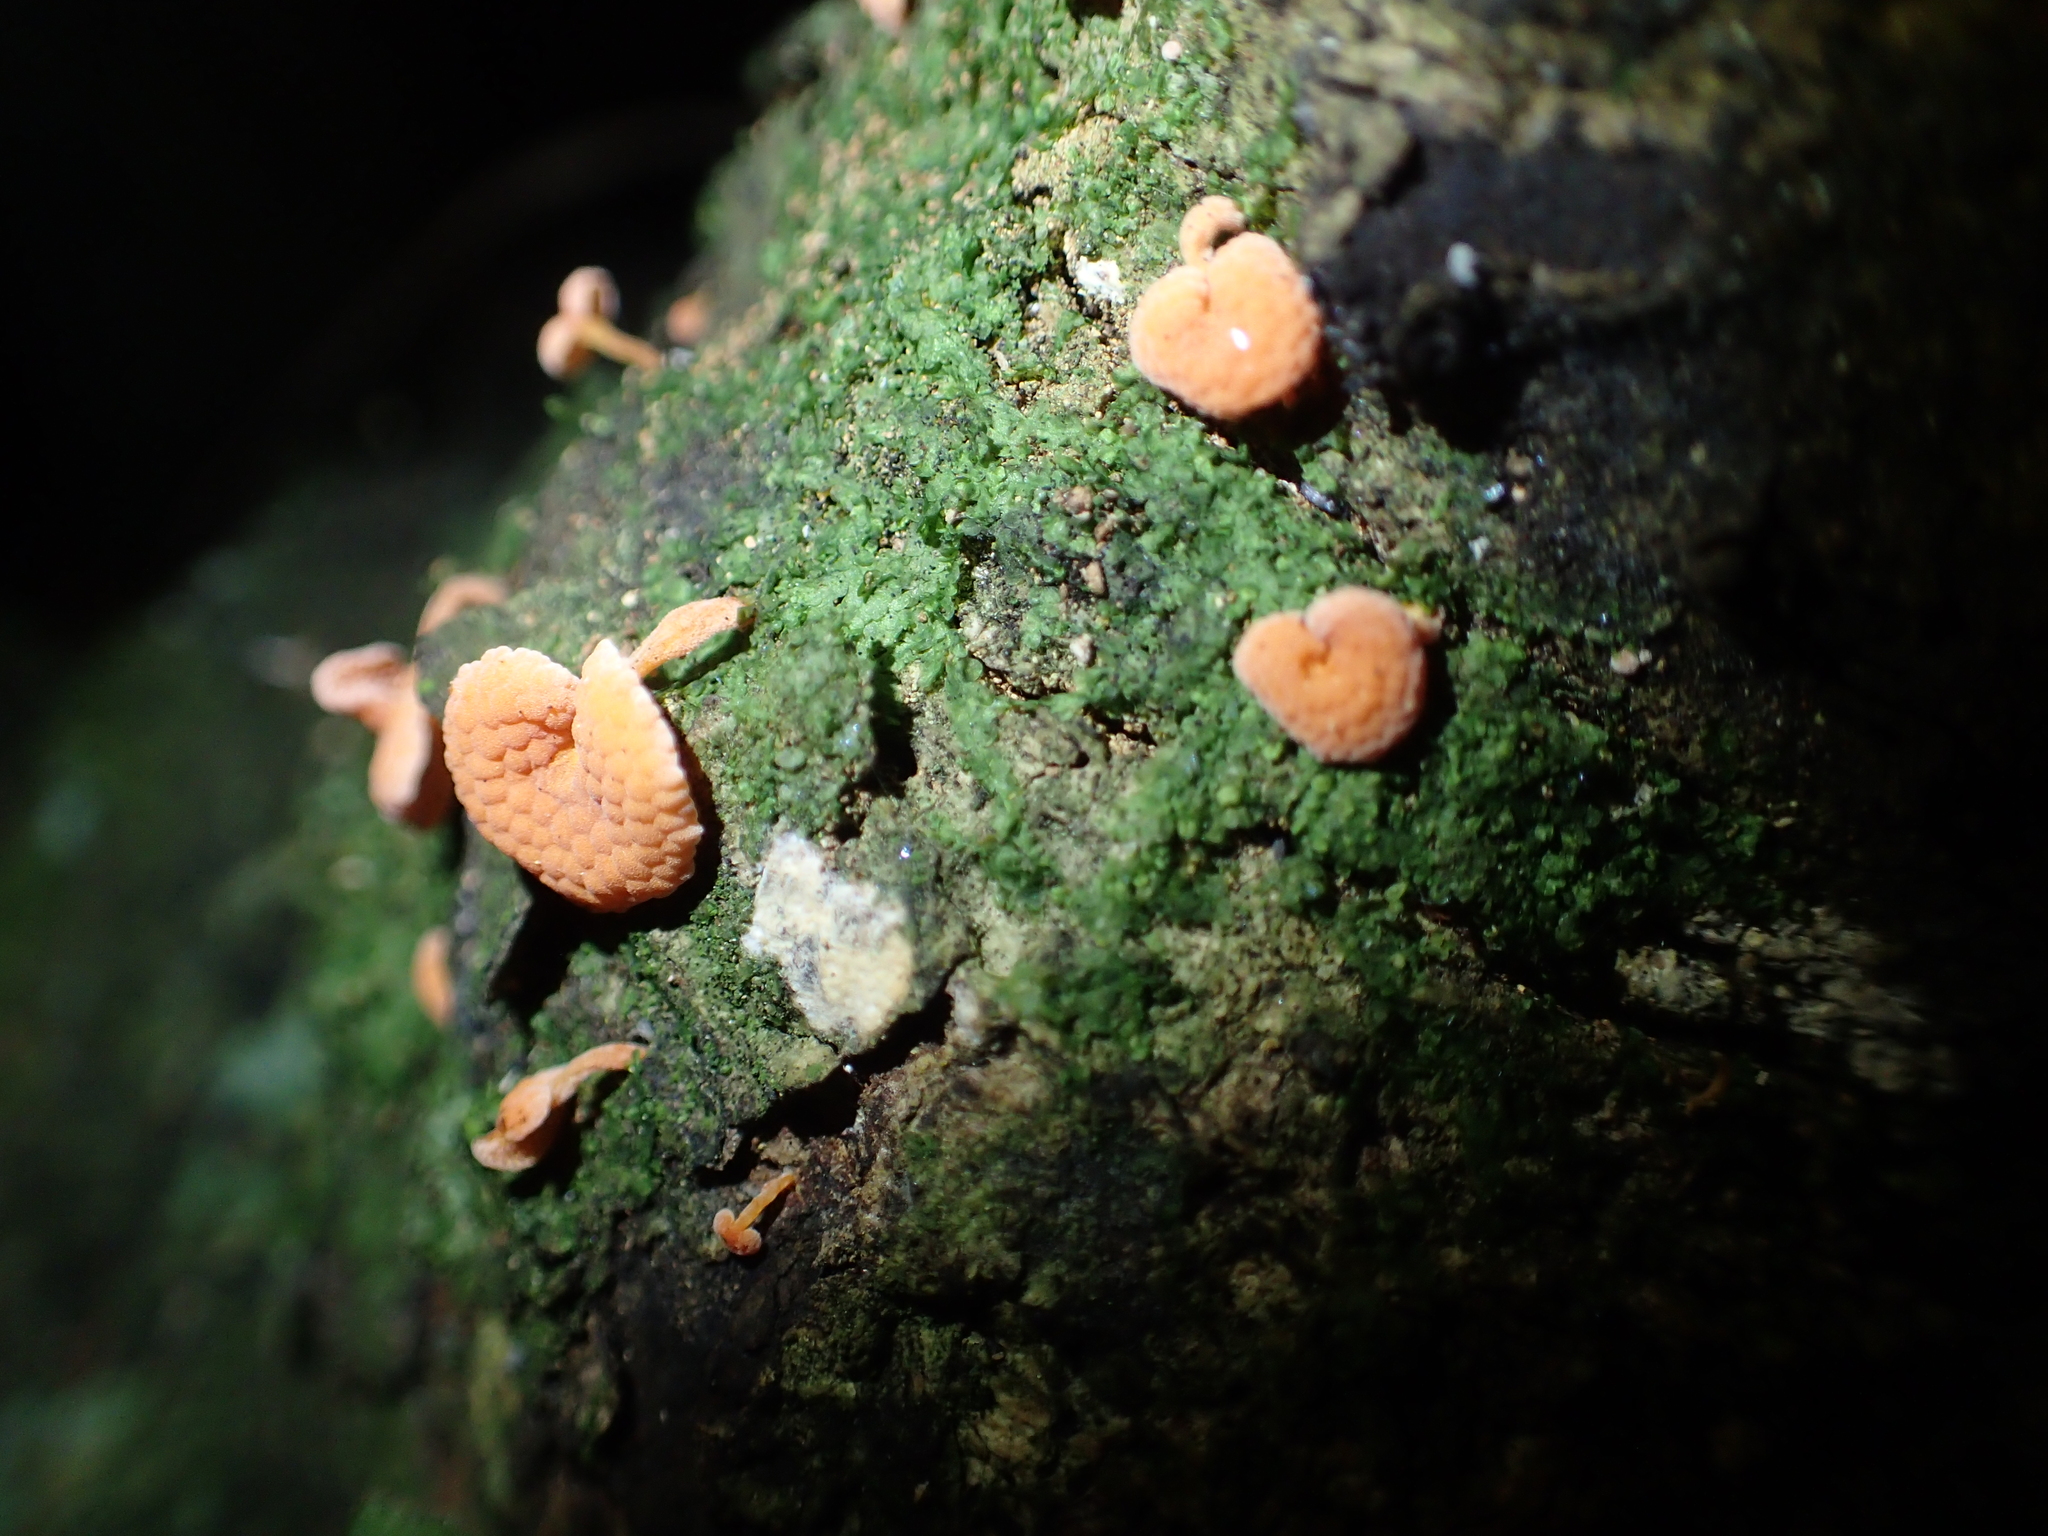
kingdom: Fungi
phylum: Basidiomycota
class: Agaricomycetes
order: Agaricales
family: Mycenaceae
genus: Favolaschia
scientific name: Favolaschia claudopus
